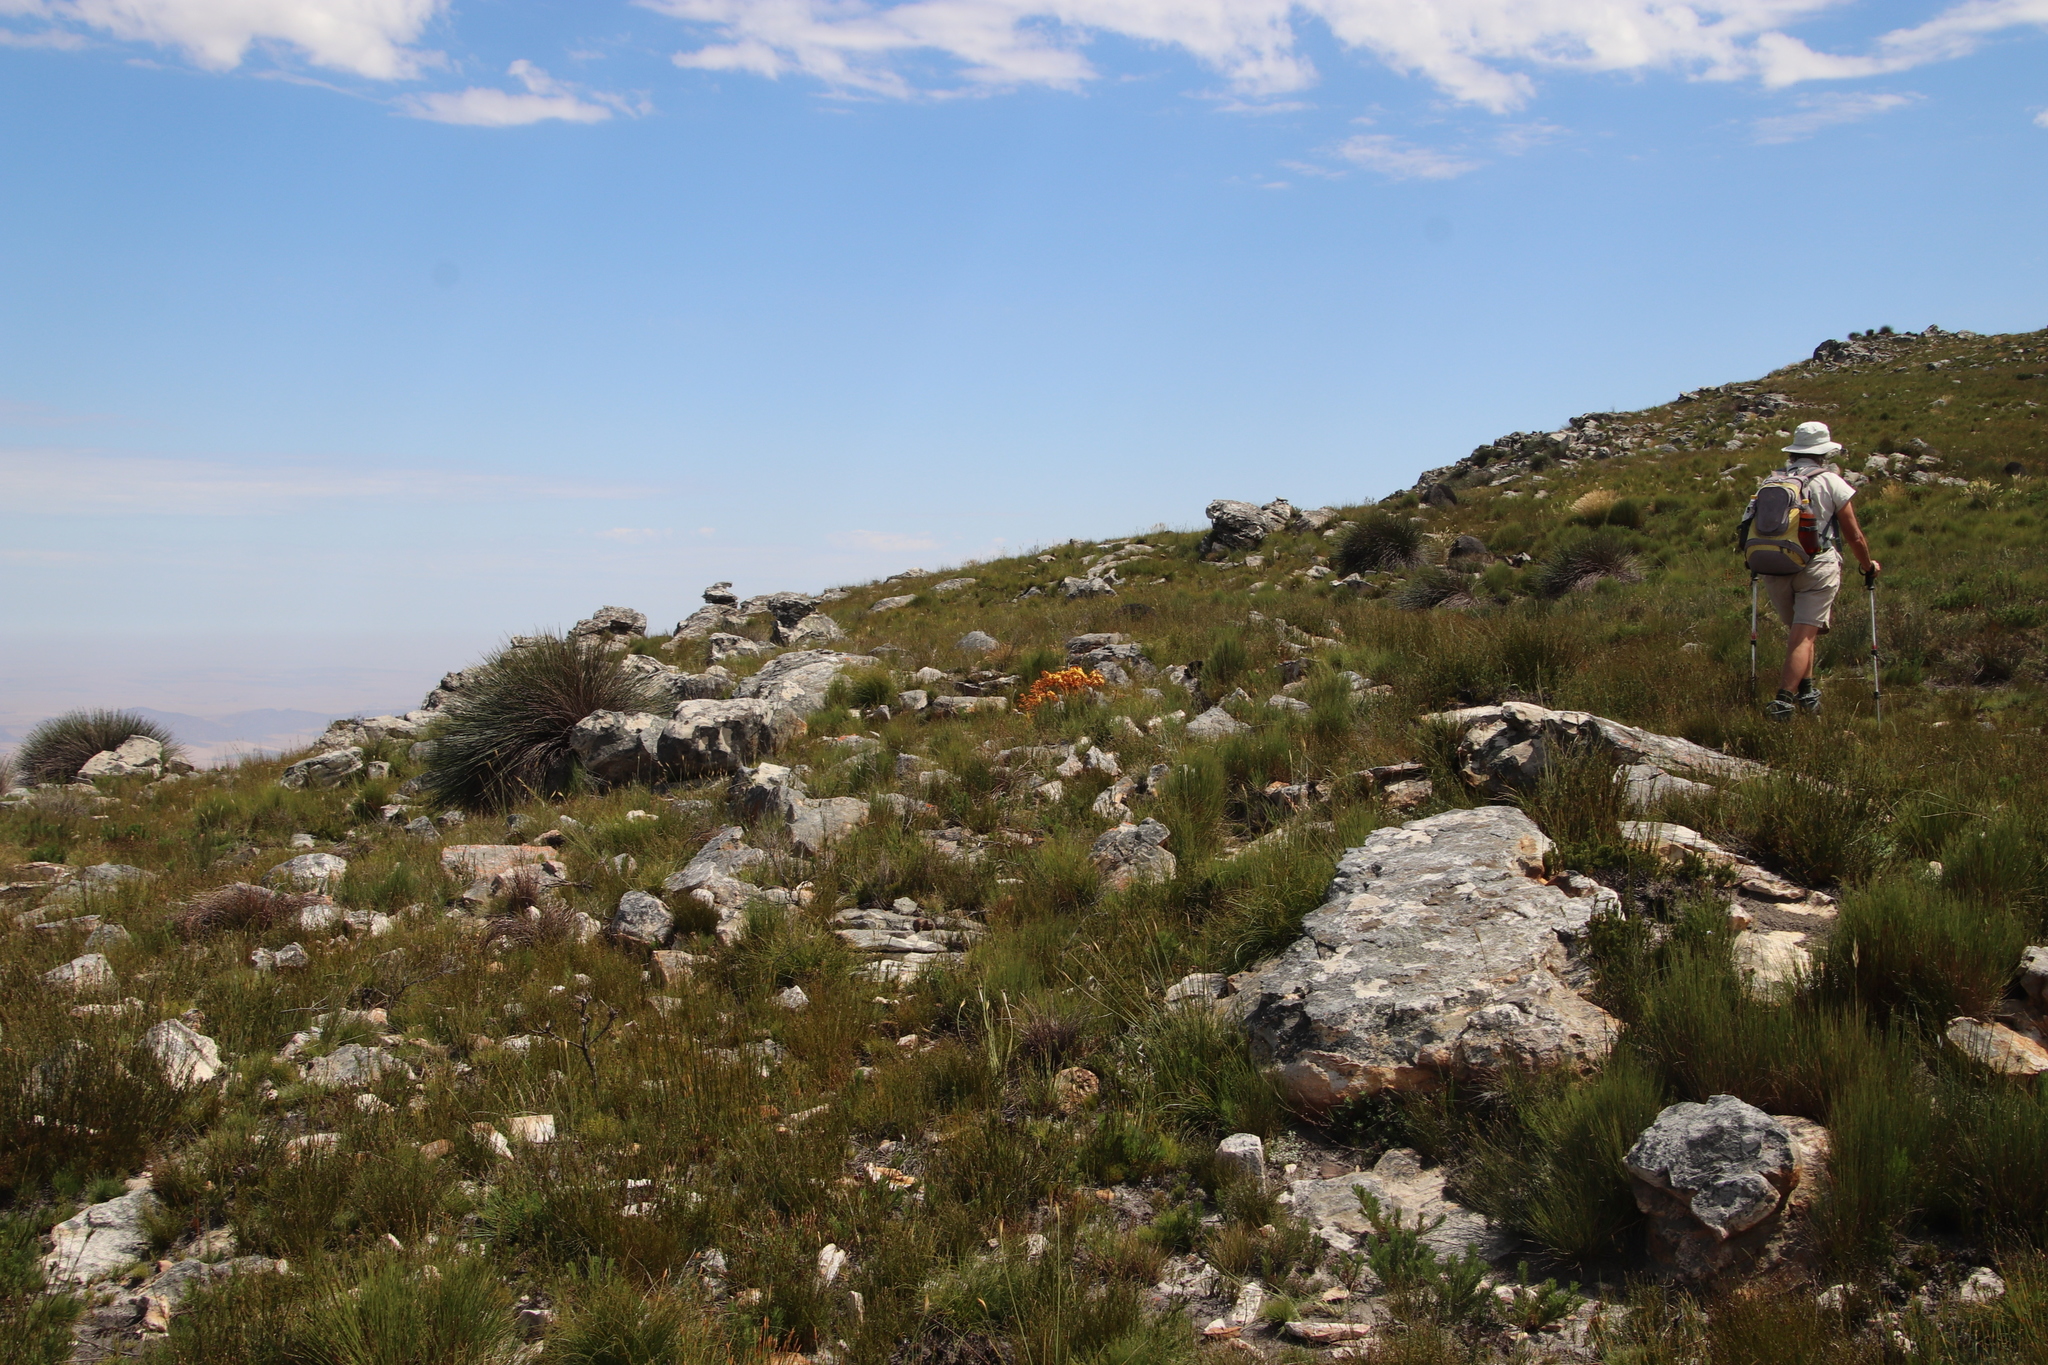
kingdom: Plantae
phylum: Tracheophyta
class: Liliopsida
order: Commelinales
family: Haemodoraceae
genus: Dilatris
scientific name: Dilatris viscosa
